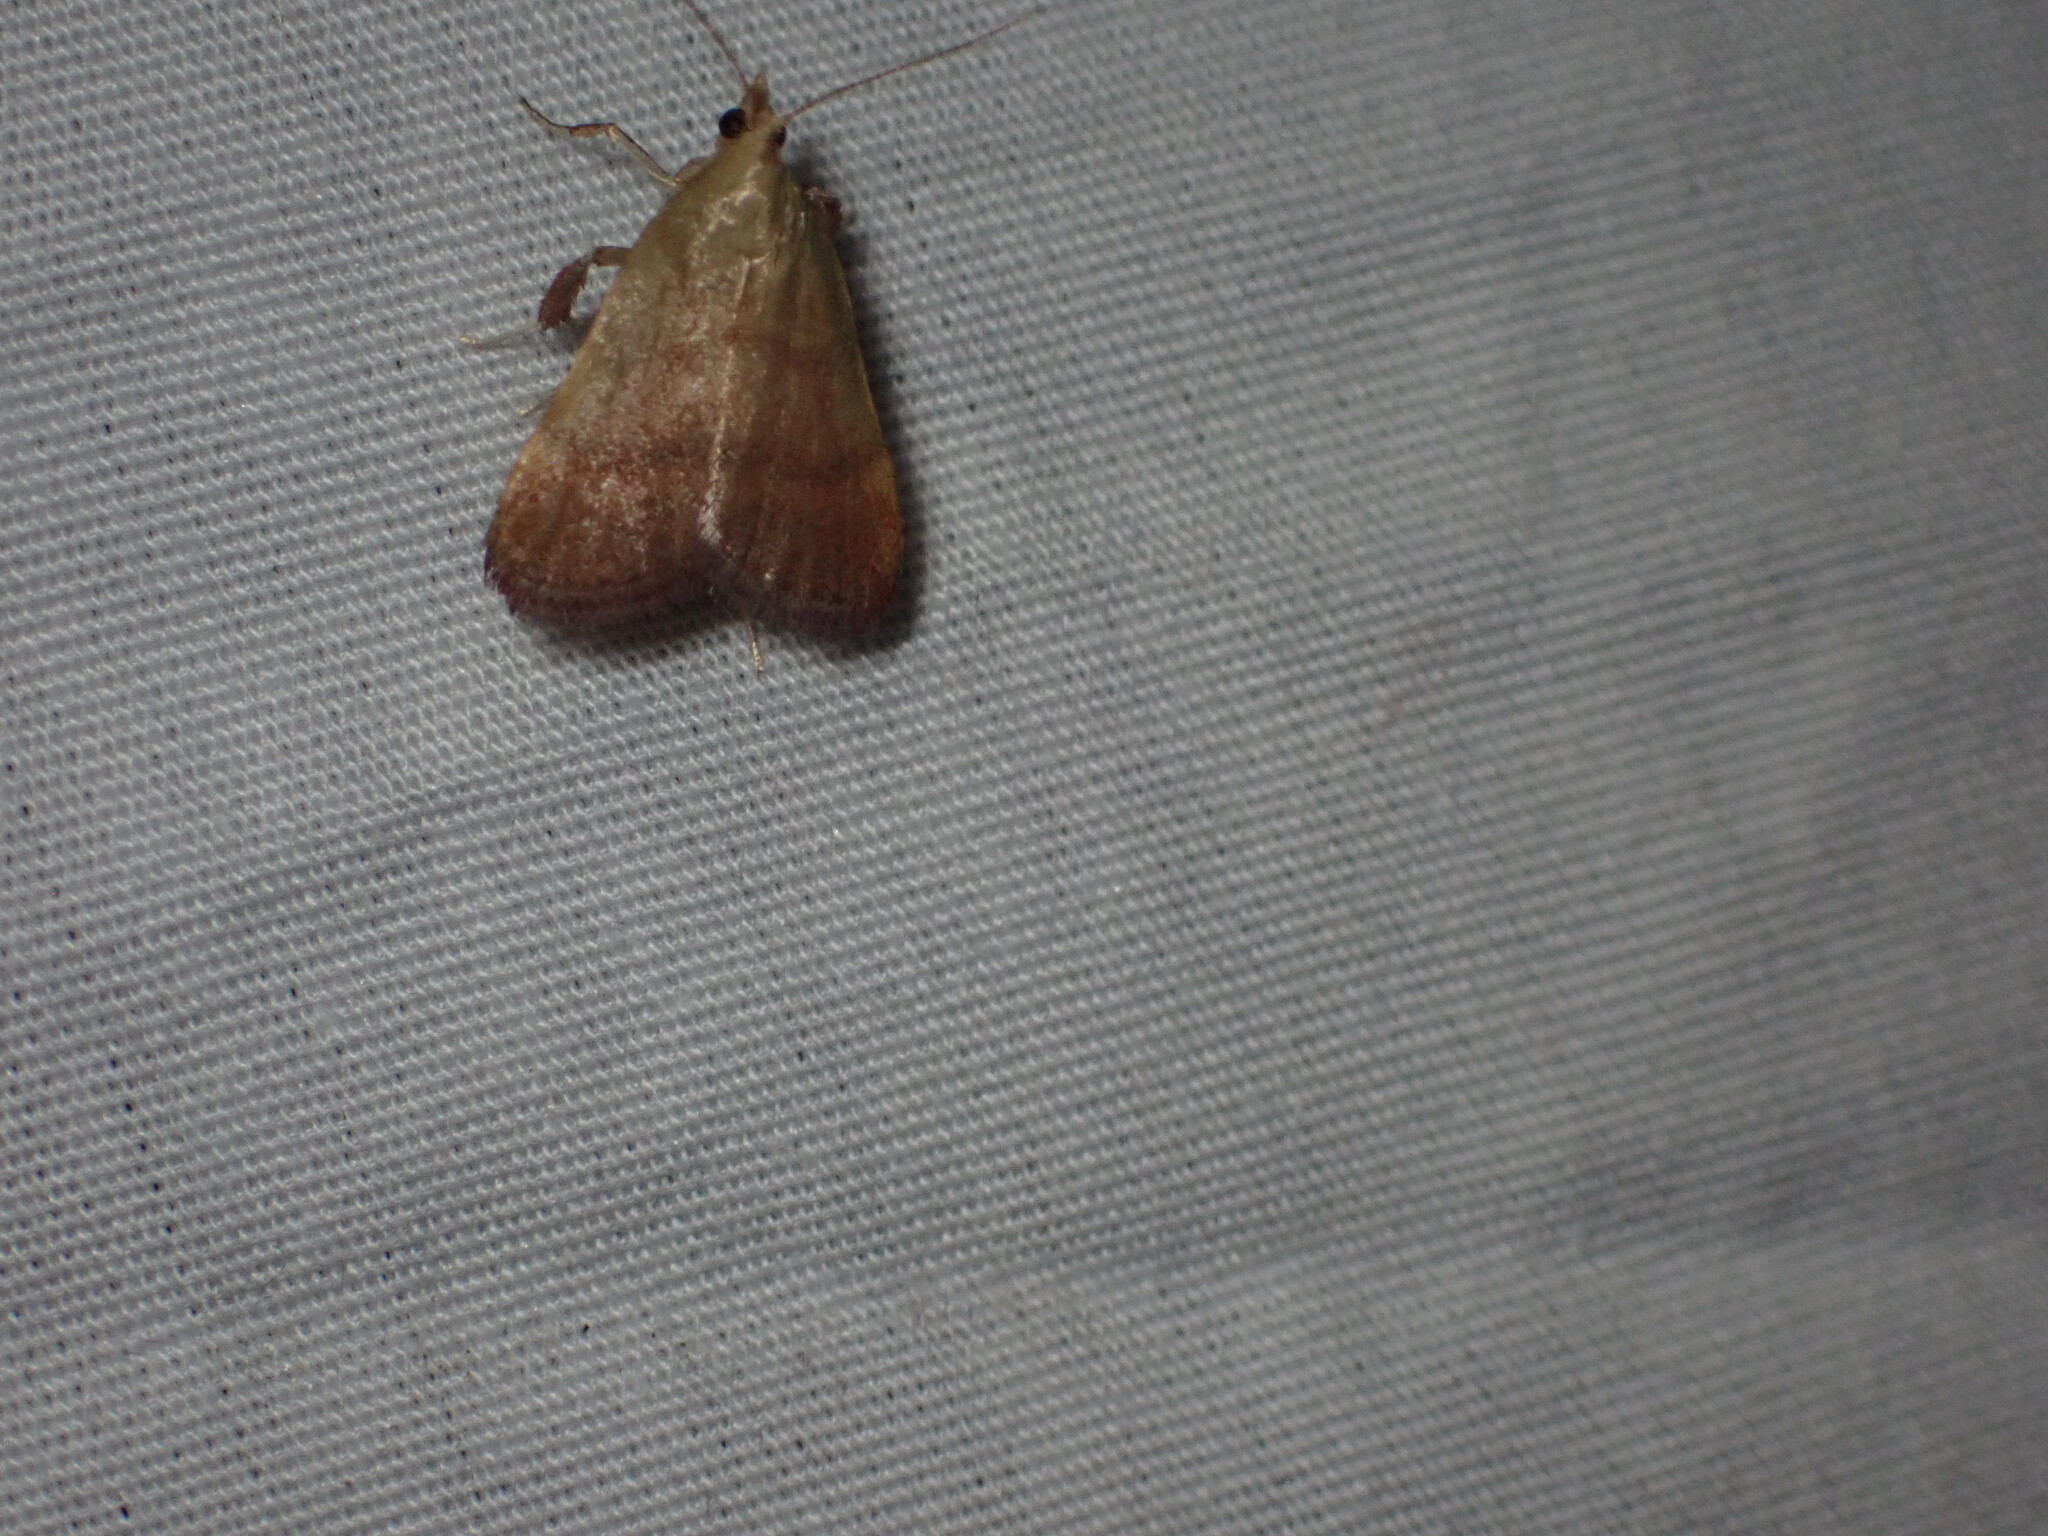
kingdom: Animalia
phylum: Arthropoda
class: Insecta
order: Lepidoptera
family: Pyralidae
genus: Condylolomia
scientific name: Condylolomia participialis
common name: Drab condylolomia moth
